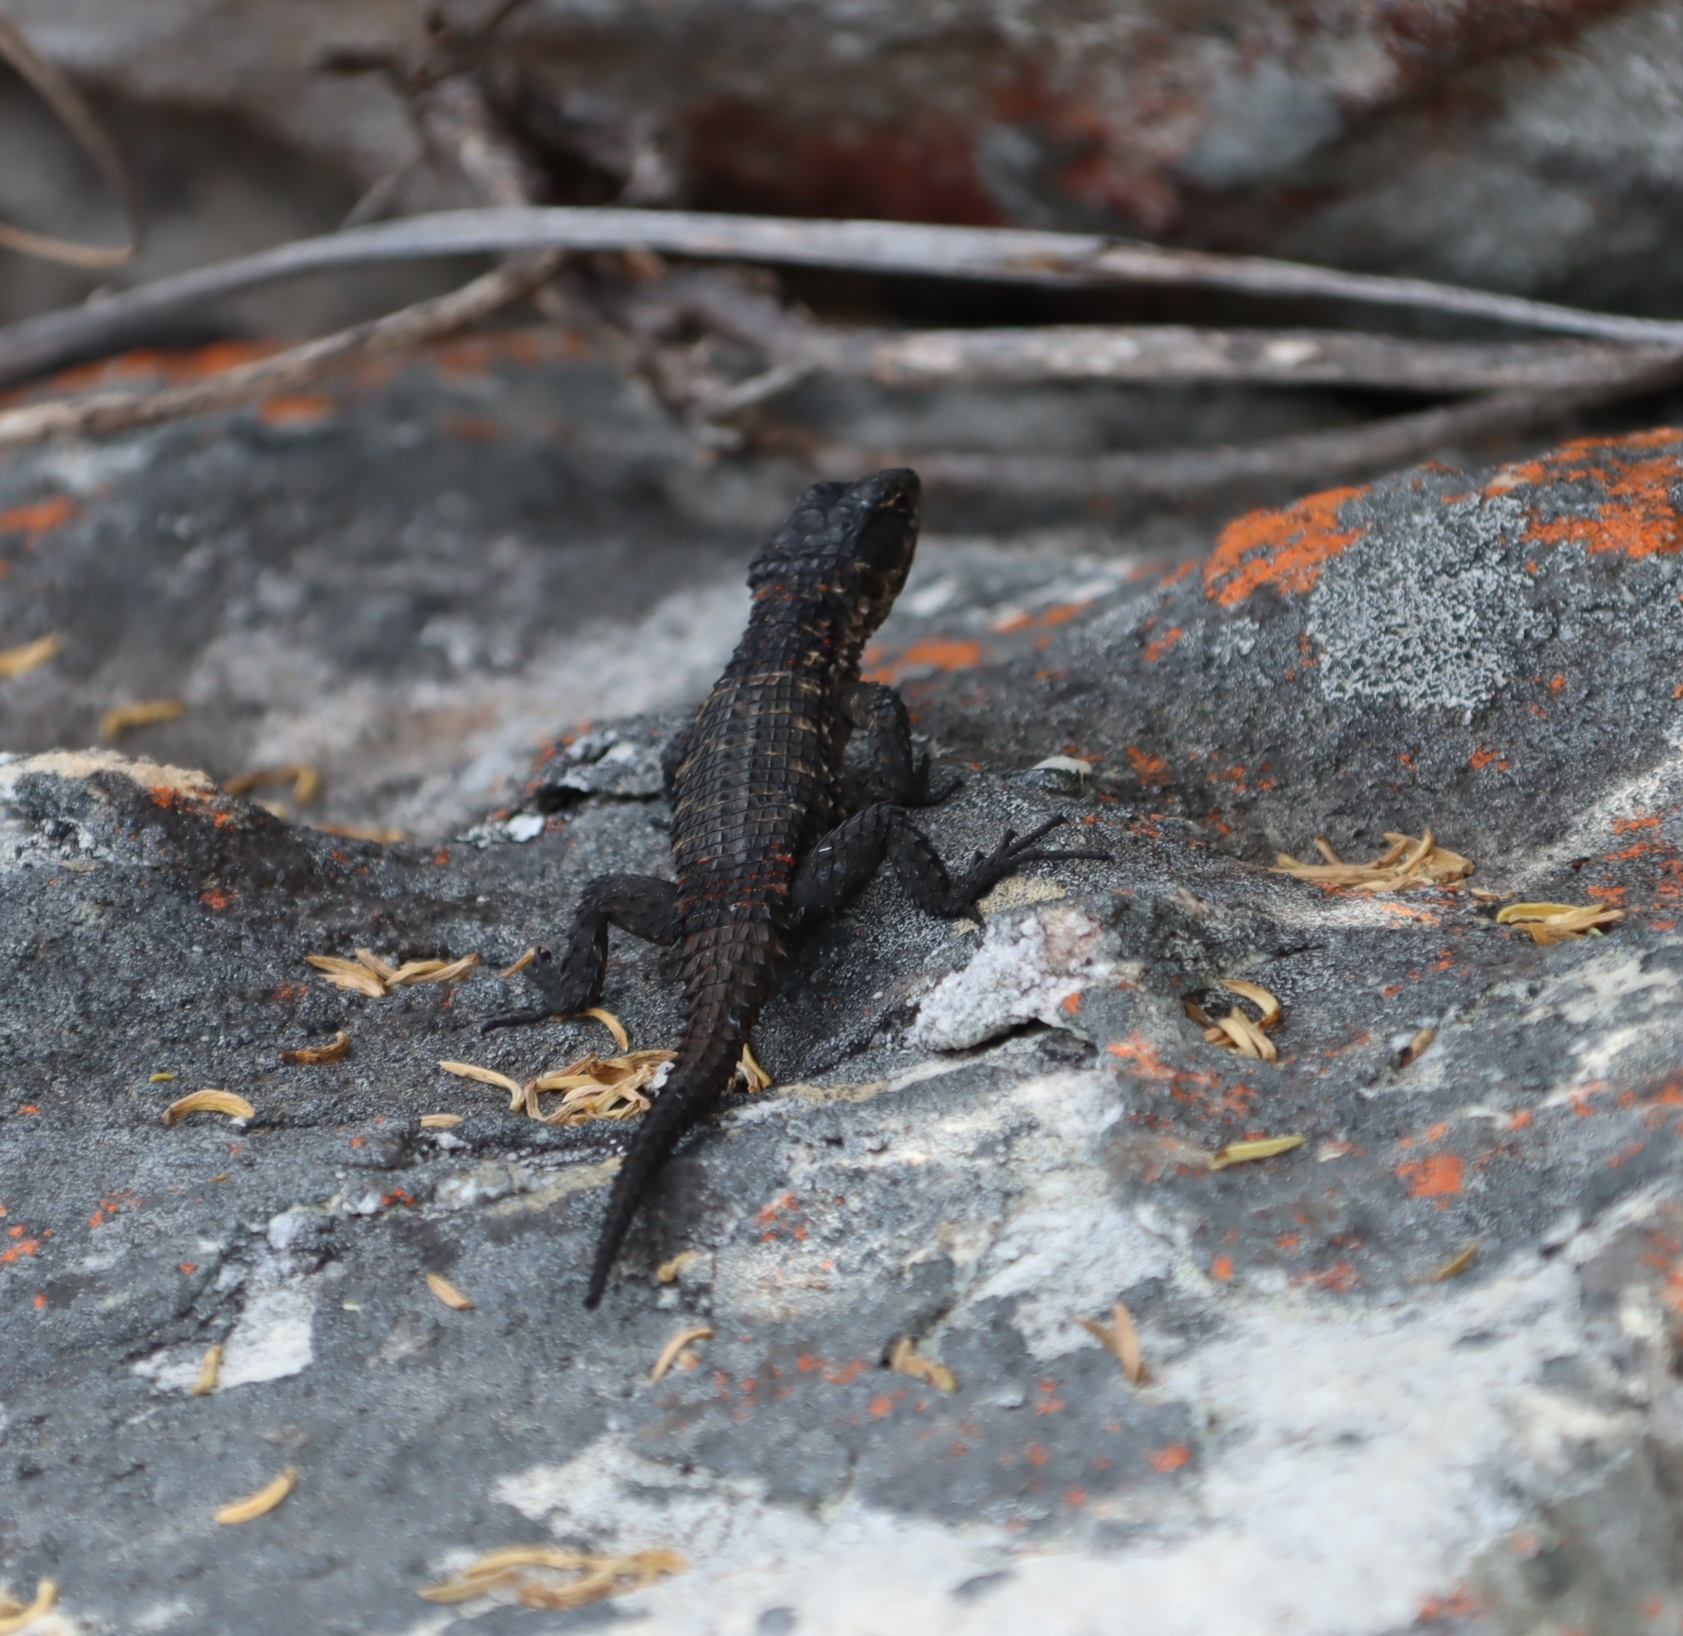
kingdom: Animalia
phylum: Chordata
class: Squamata
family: Cordylidae
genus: Cordylus
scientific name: Cordylus niger
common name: Black girdled lizard
